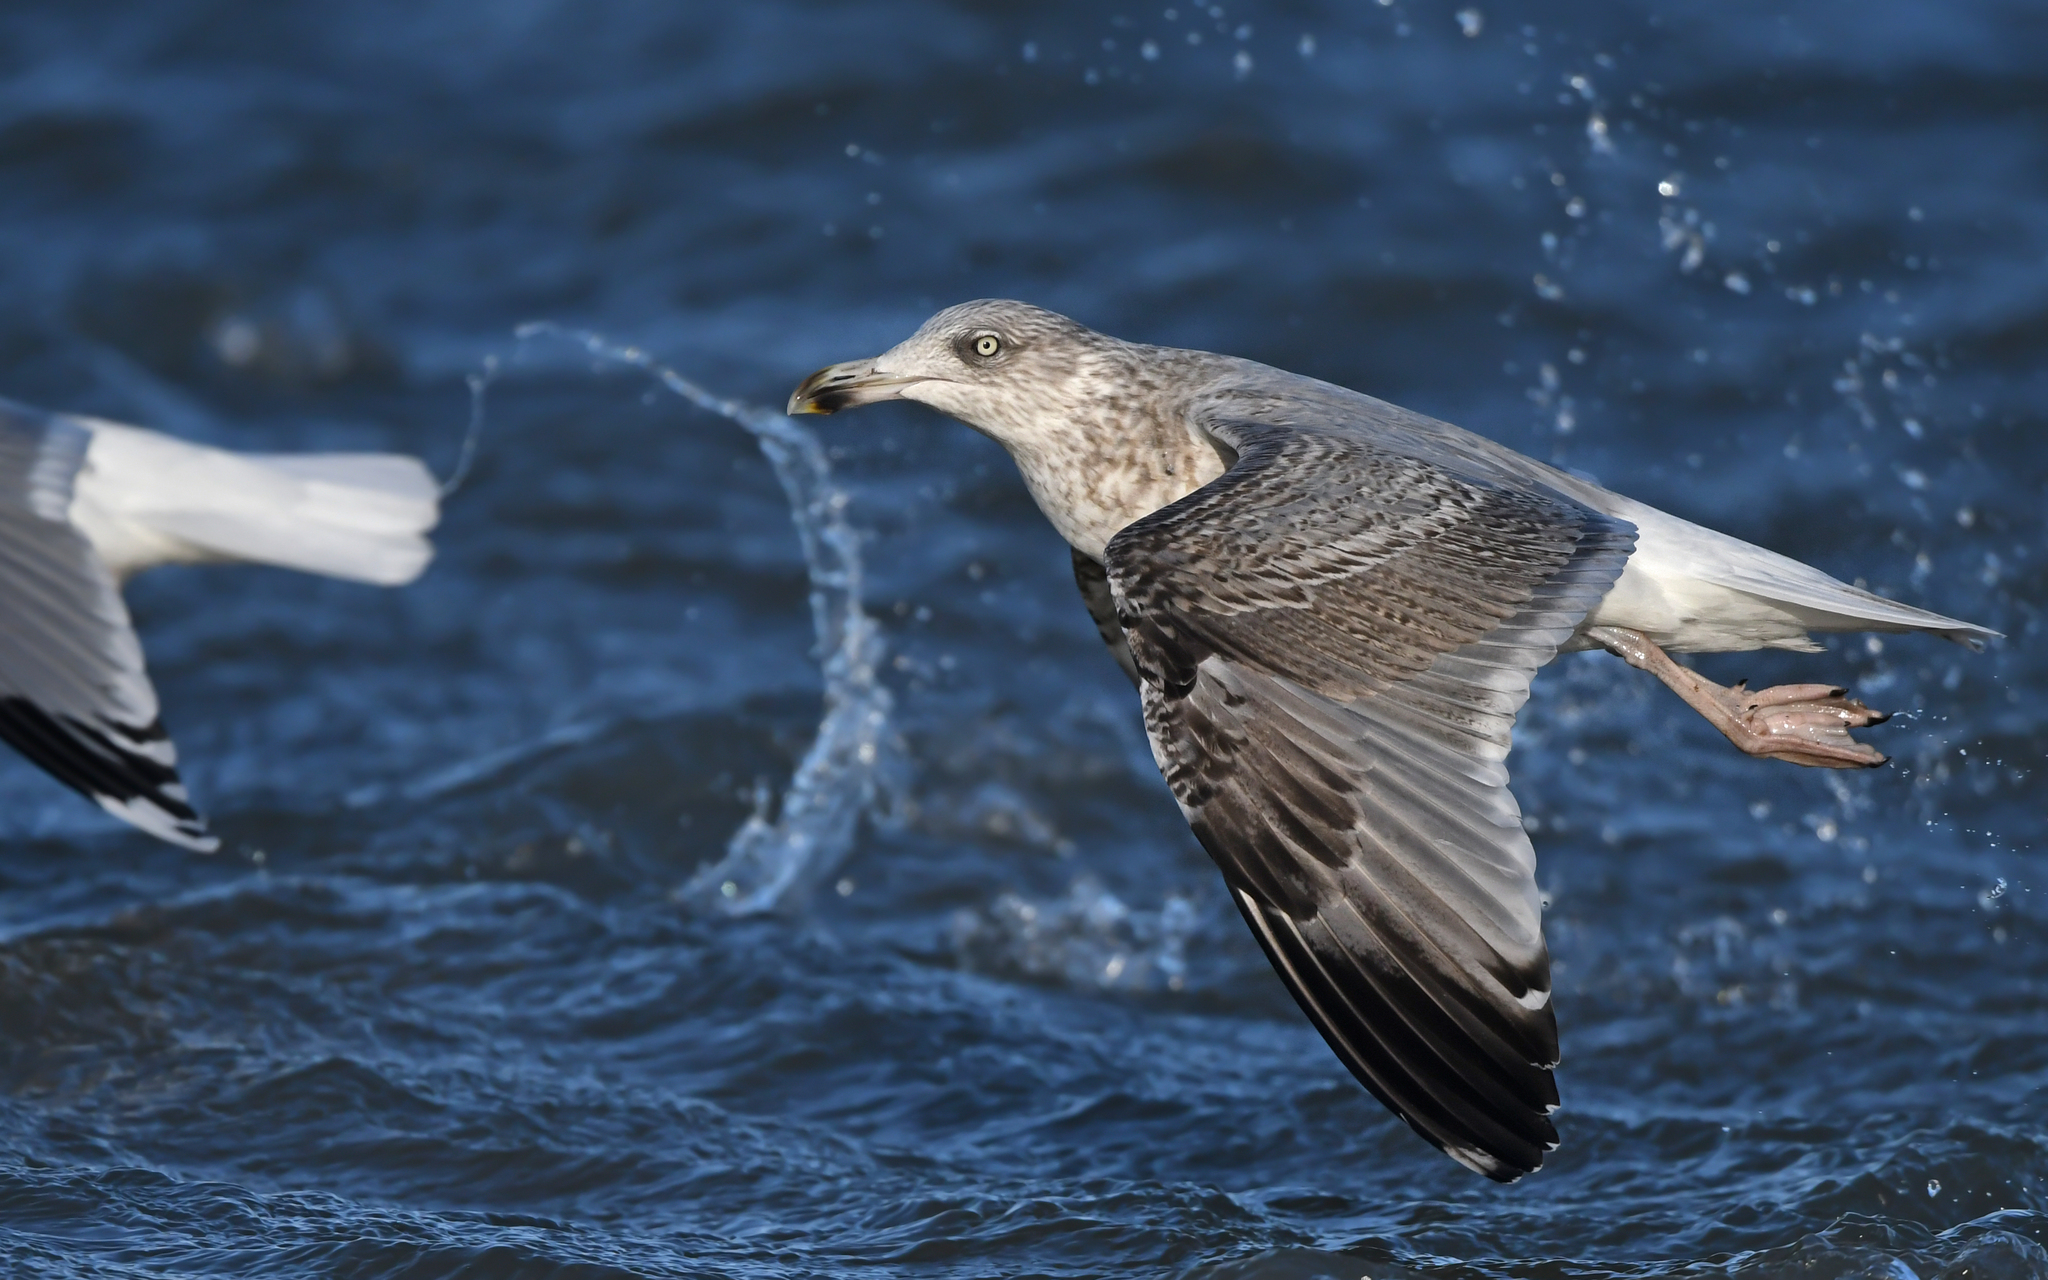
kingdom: Animalia
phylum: Chordata
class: Aves
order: Charadriiformes
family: Laridae
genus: Larus
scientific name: Larus argentatus
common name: Herring gull
